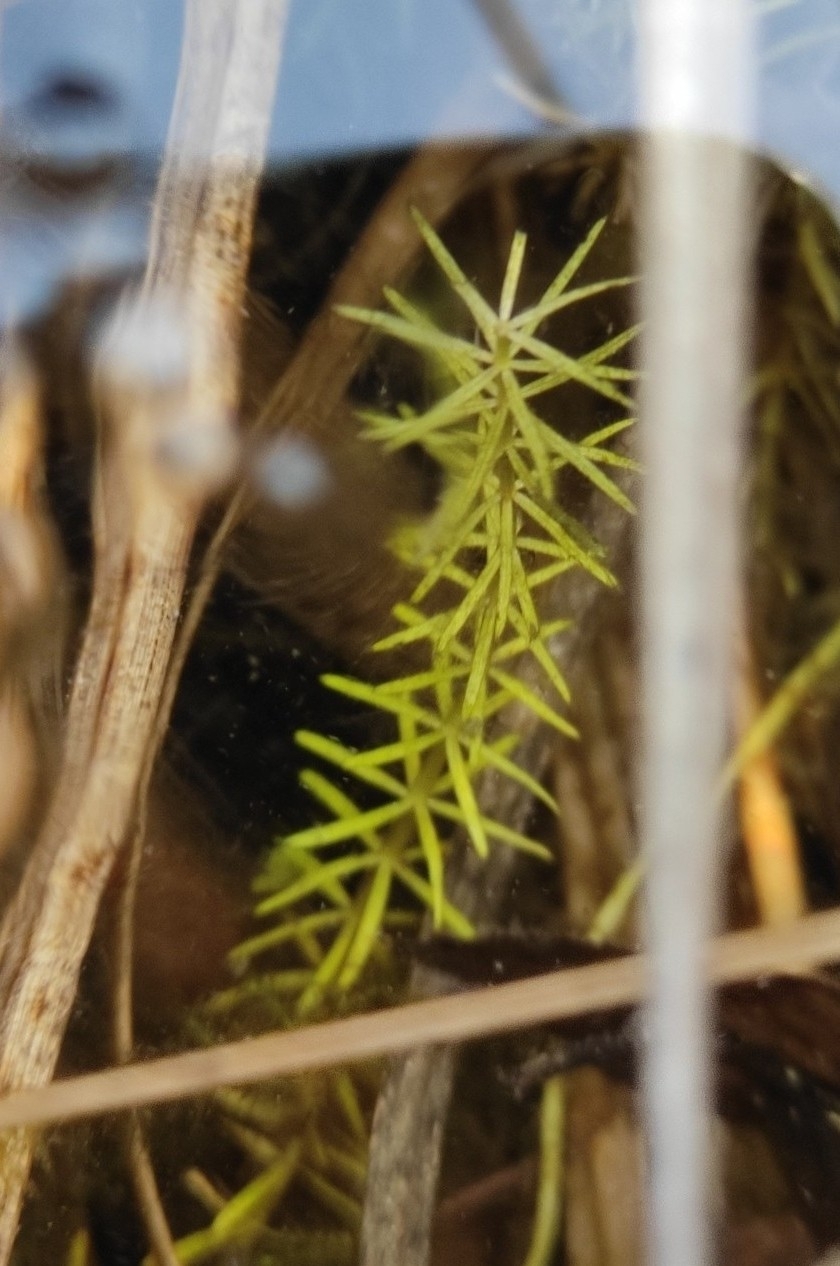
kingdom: Plantae
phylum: Tracheophyta
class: Magnoliopsida
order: Lamiales
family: Plantaginaceae
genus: Hippuris
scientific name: Hippuris vulgaris
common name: Mare's-tail
